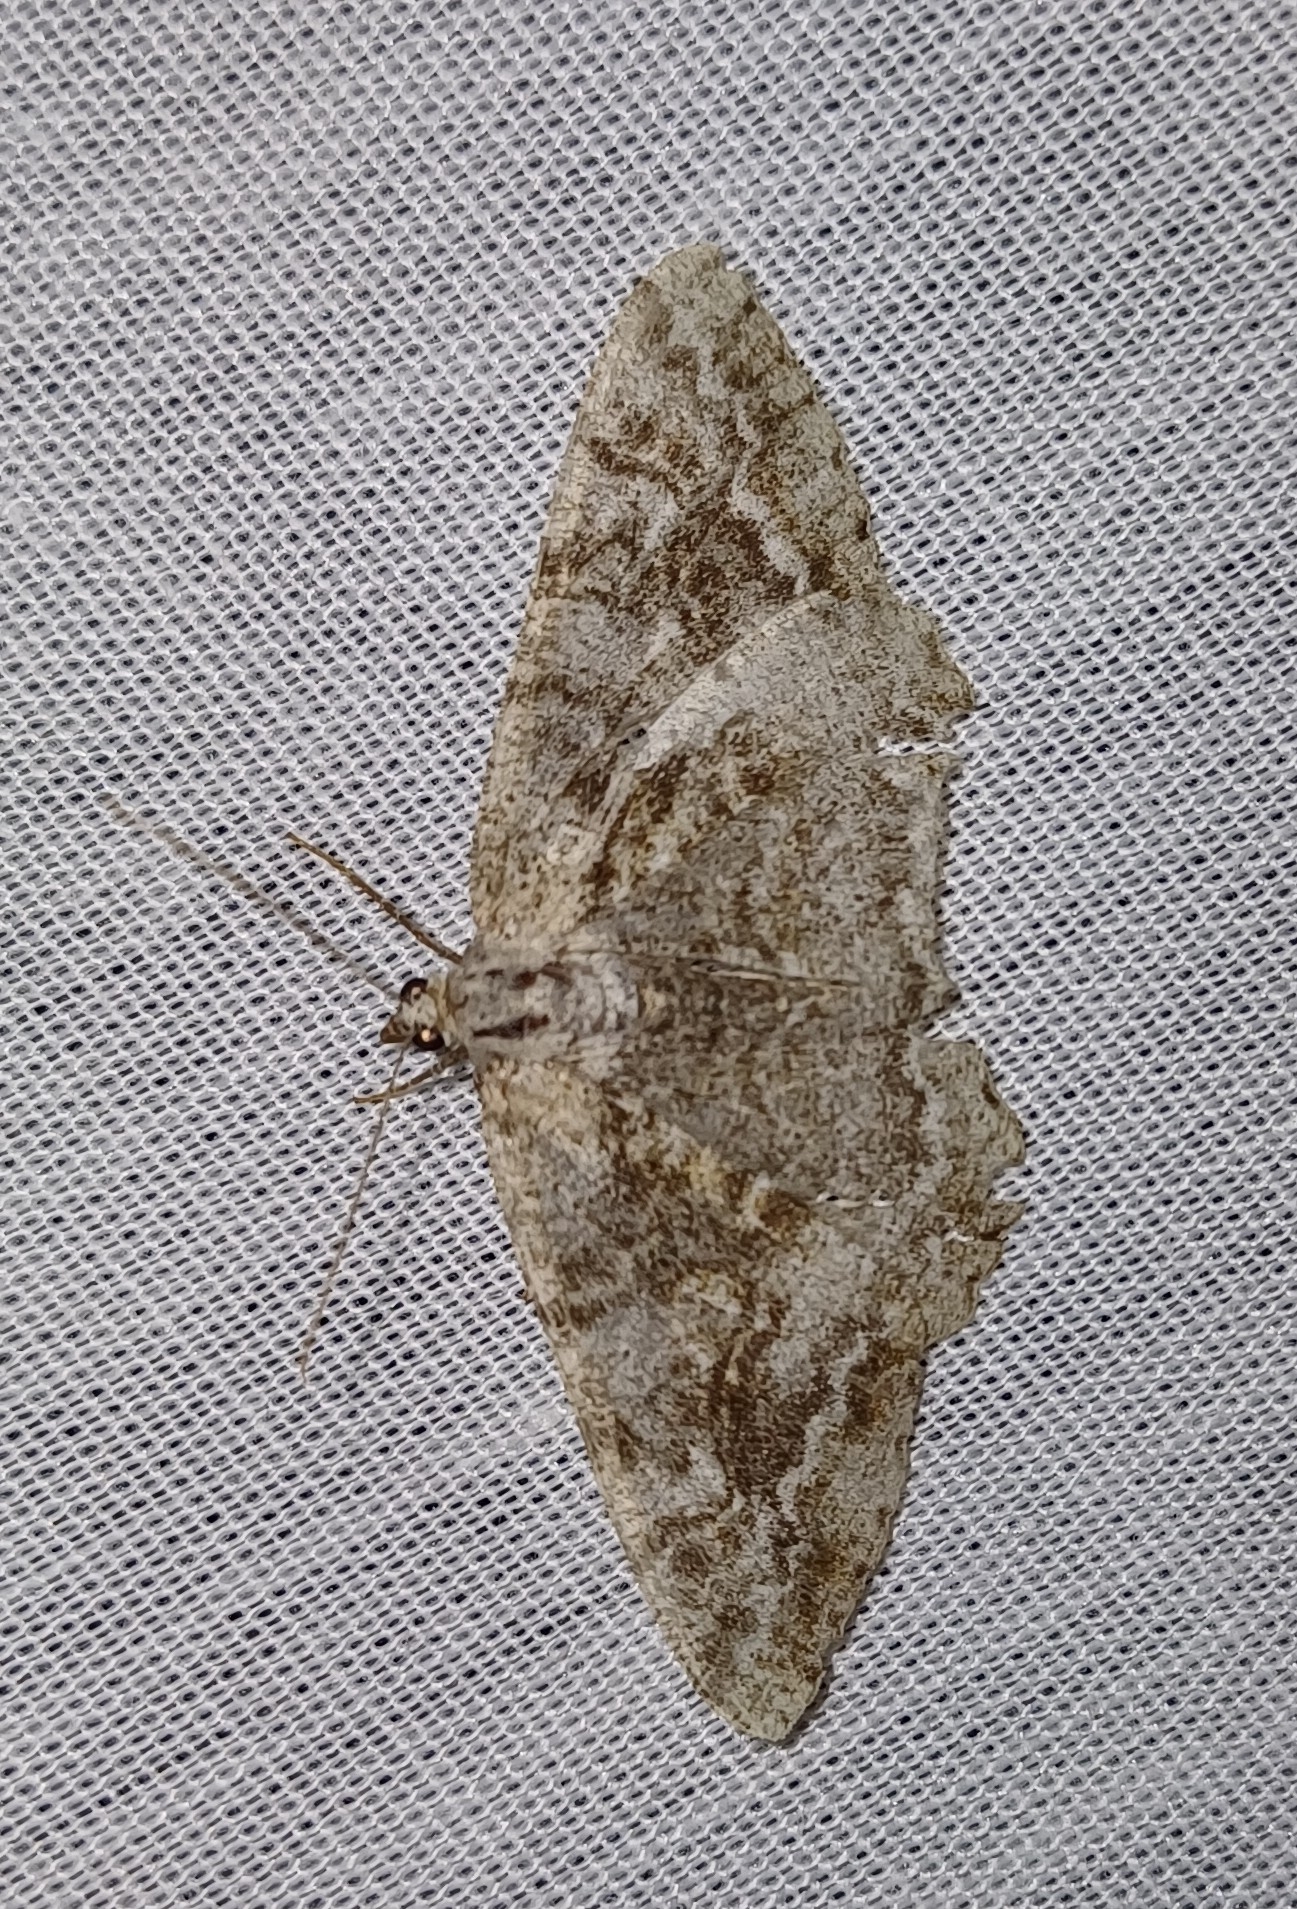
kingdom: Animalia
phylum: Arthropoda
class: Insecta
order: Lepidoptera
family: Geometridae
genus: Alcis
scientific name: Alcis repandata
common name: Mottled beauty
